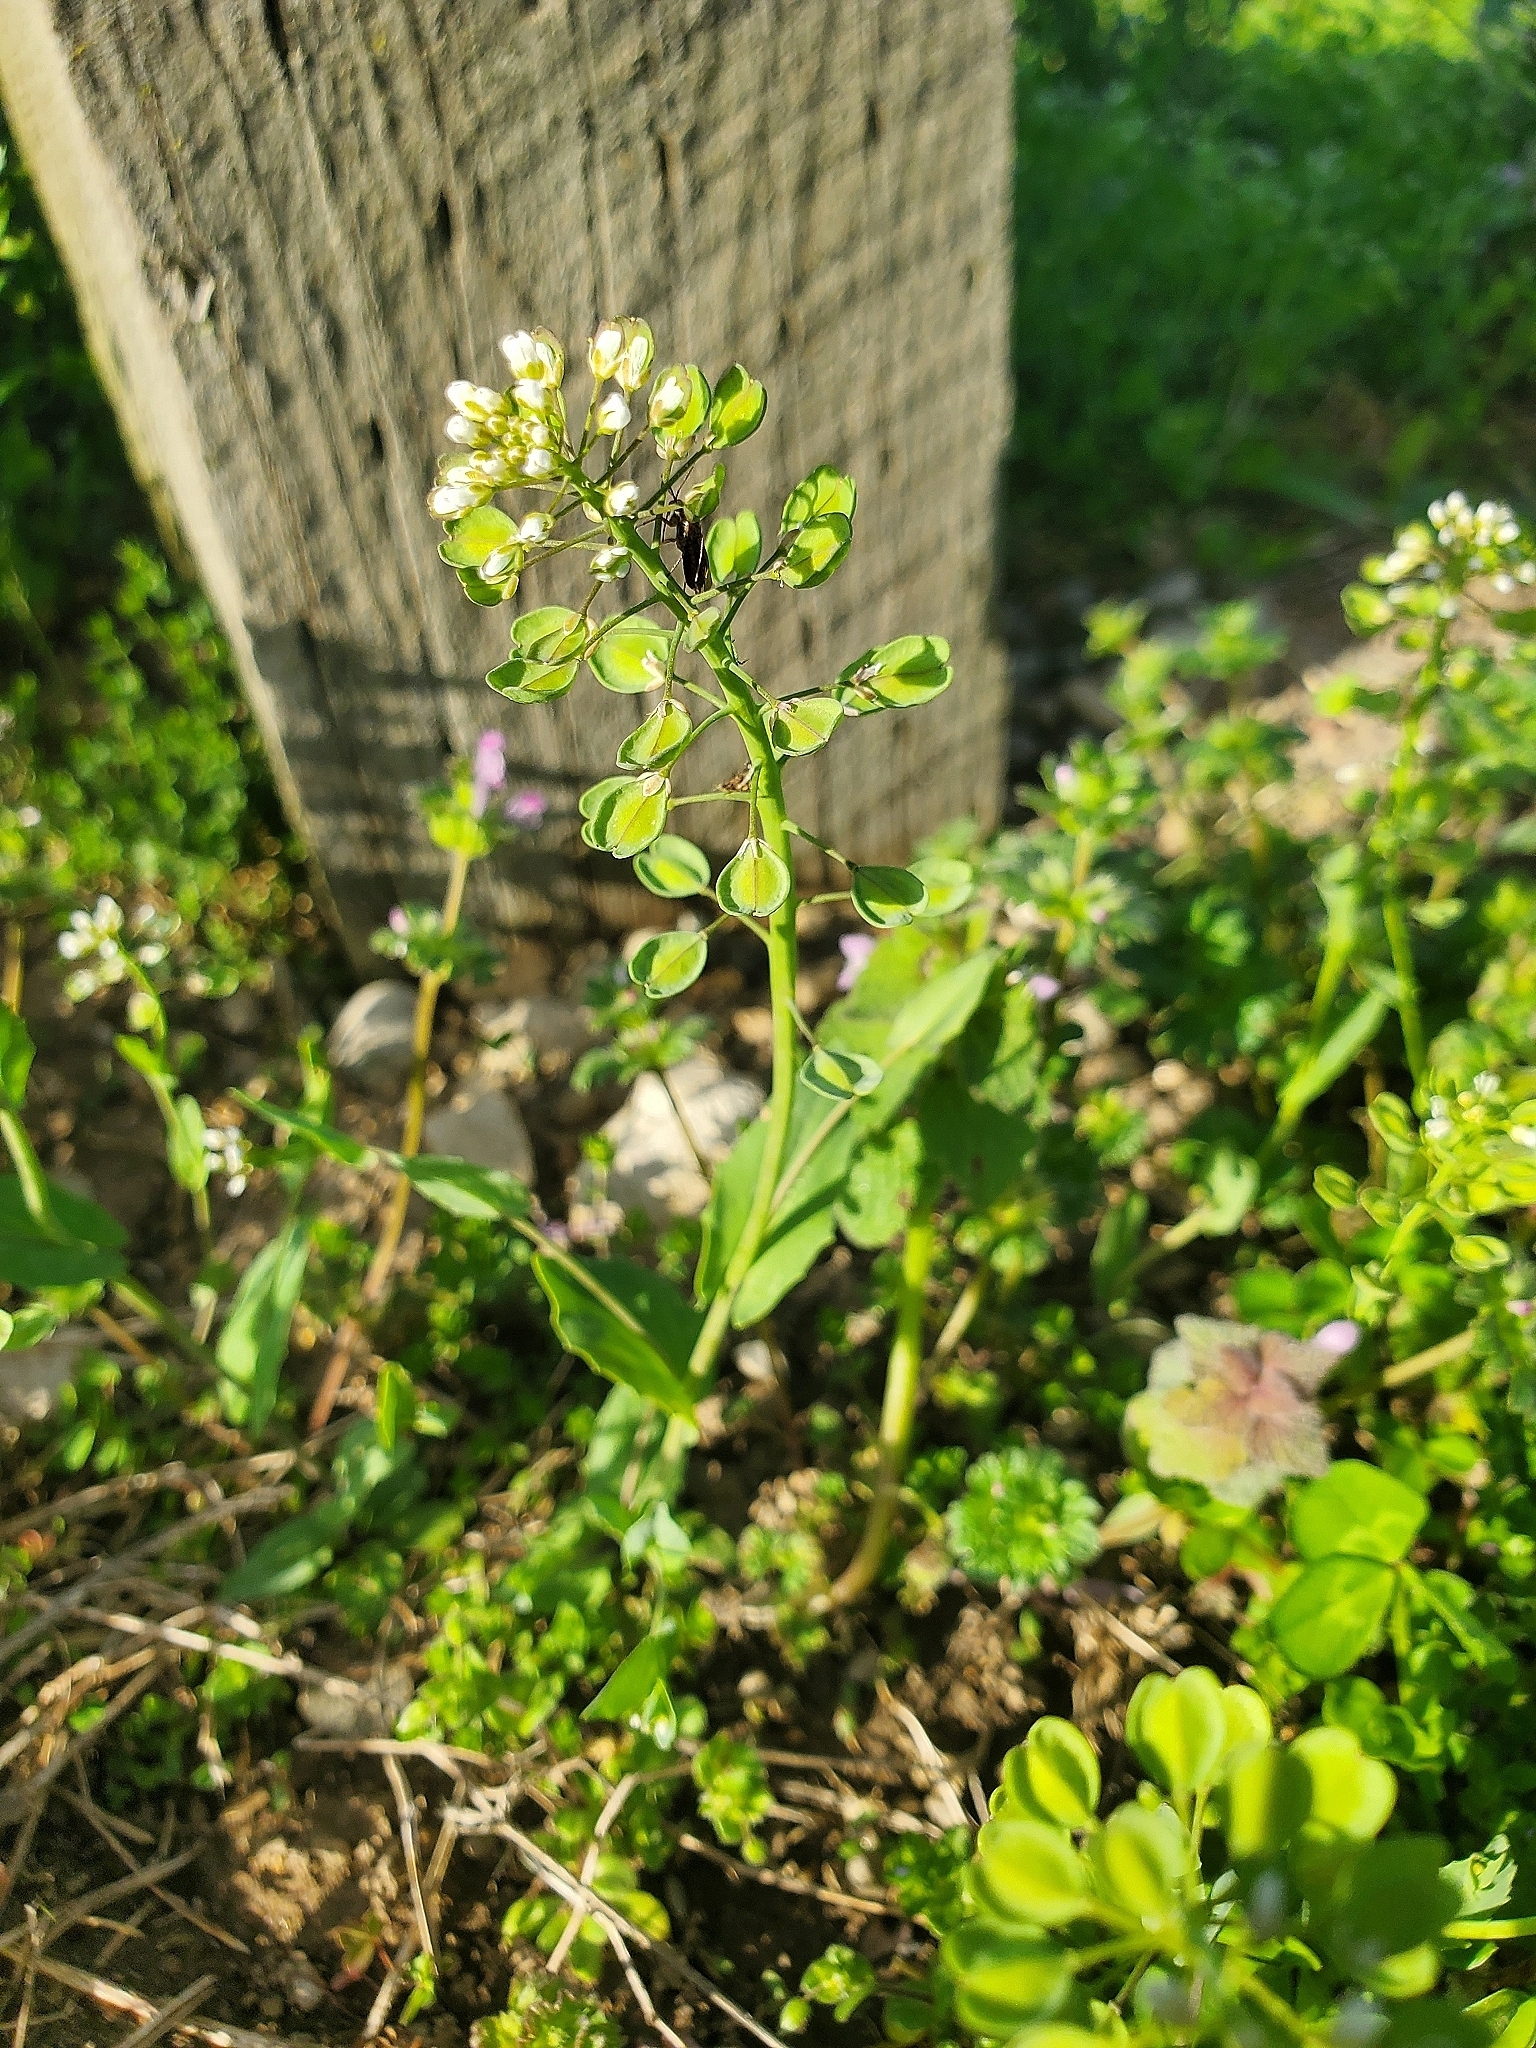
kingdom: Plantae
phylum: Tracheophyta
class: Magnoliopsida
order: Brassicales
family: Brassicaceae
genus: Noccaea
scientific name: Noccaea perfoliata
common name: Perfoliate pennycress
